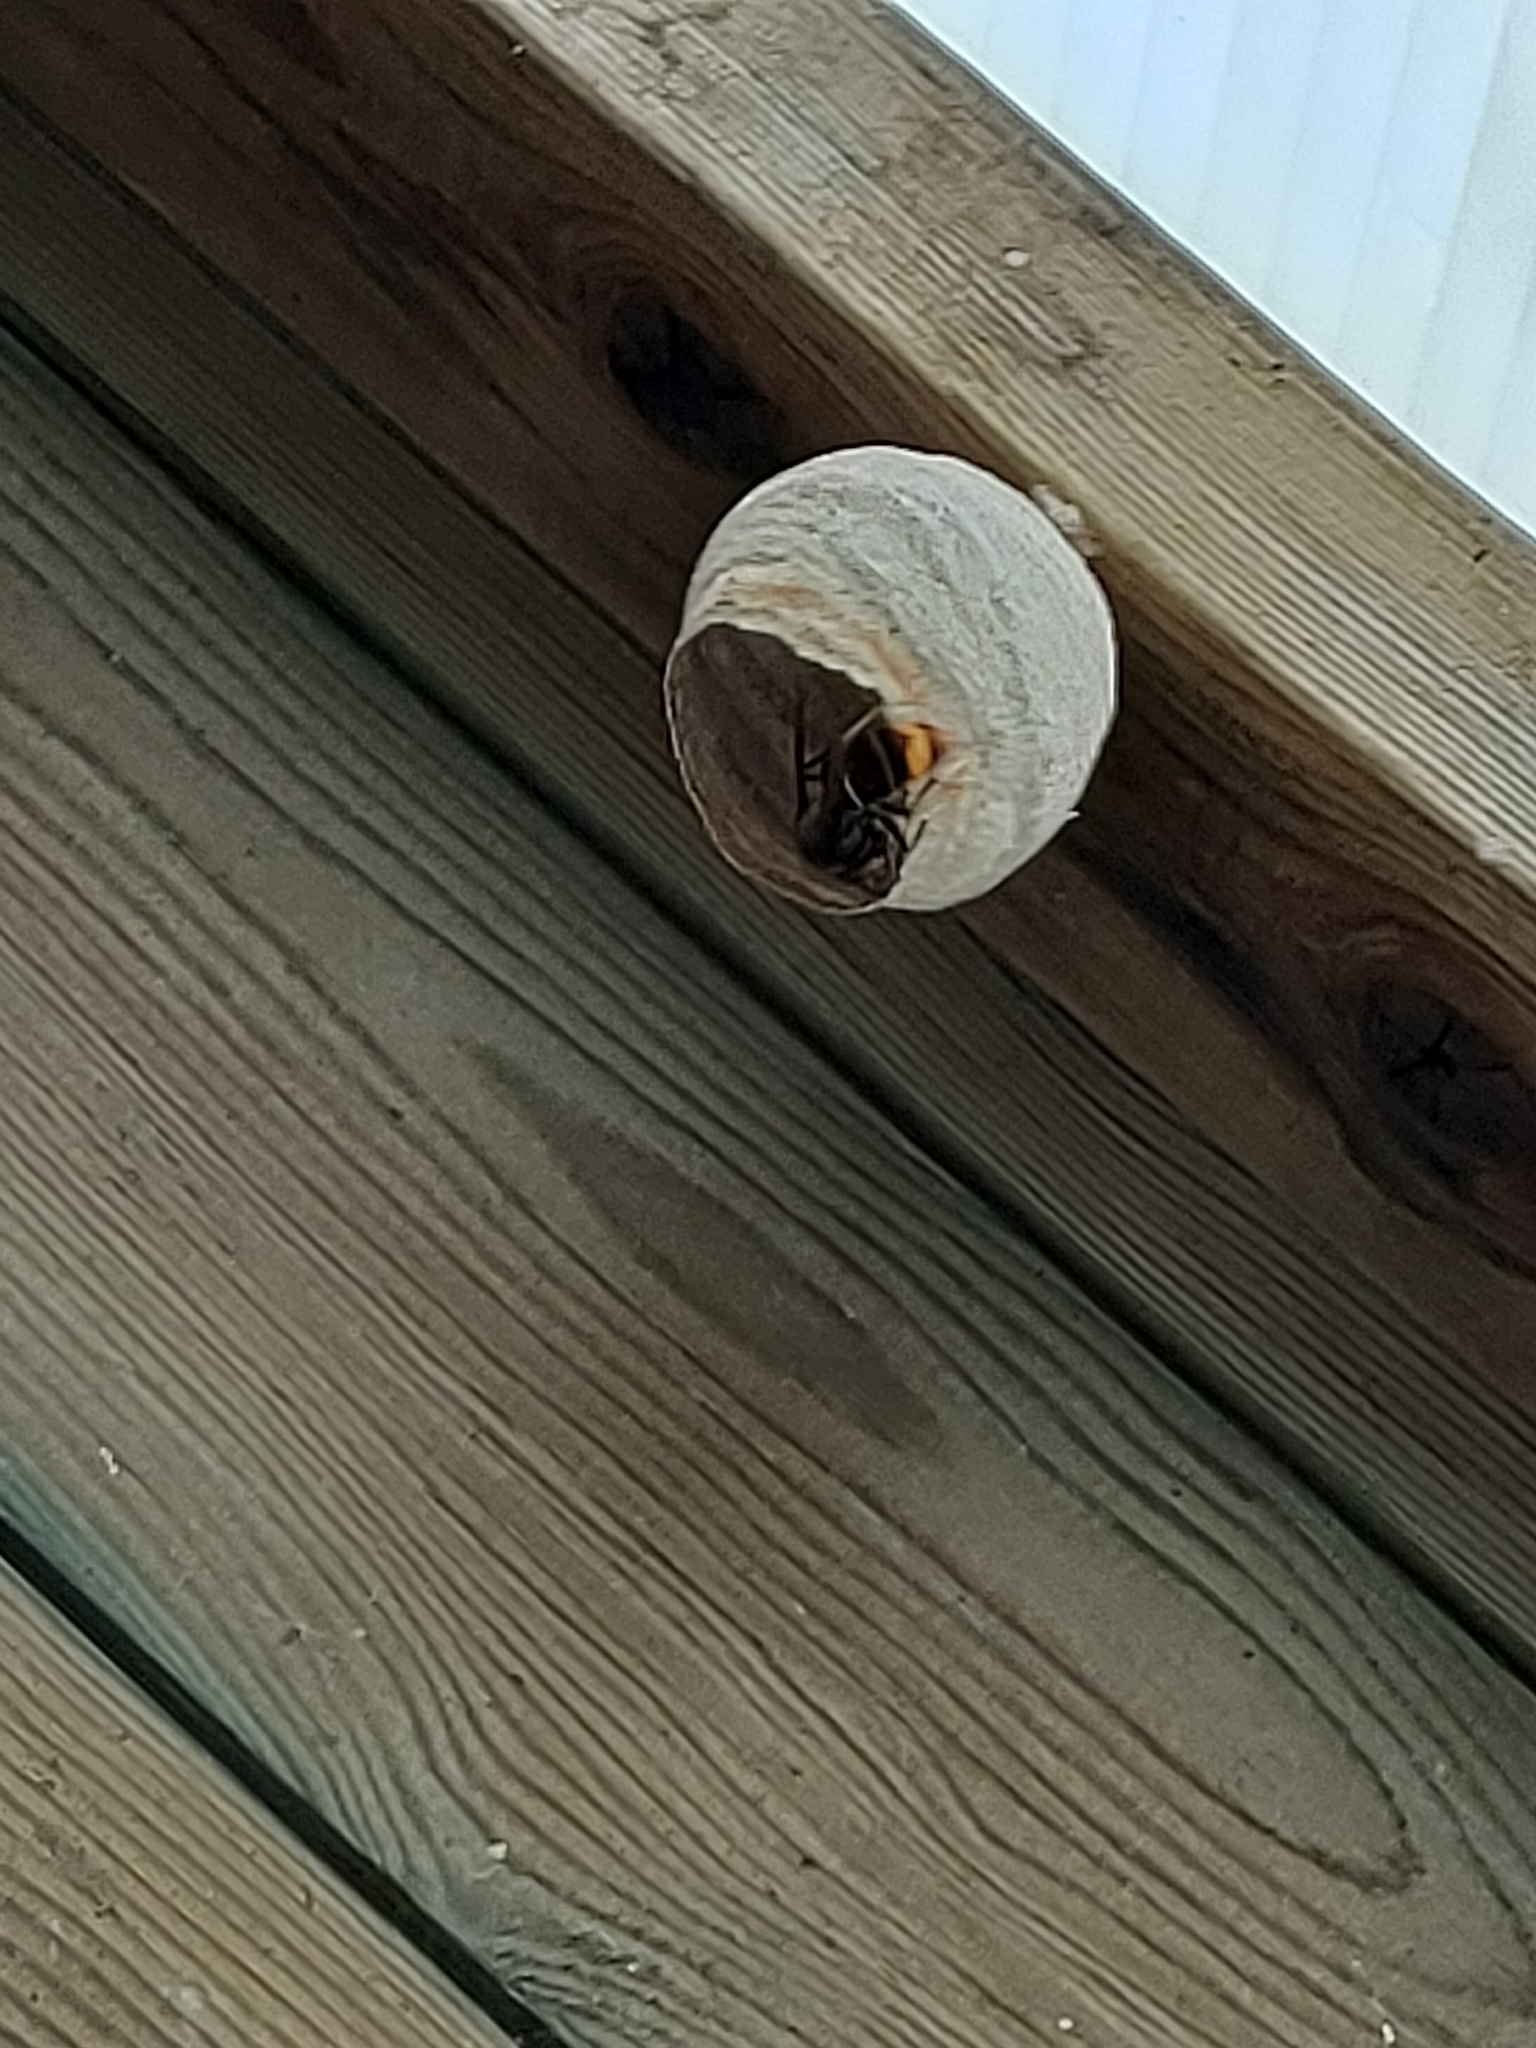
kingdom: Animalia
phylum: Arthropoda
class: Insecta
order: Hymenoptera
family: Vespidae
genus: Vespa
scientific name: Vespa velutina
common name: Asian hornet
